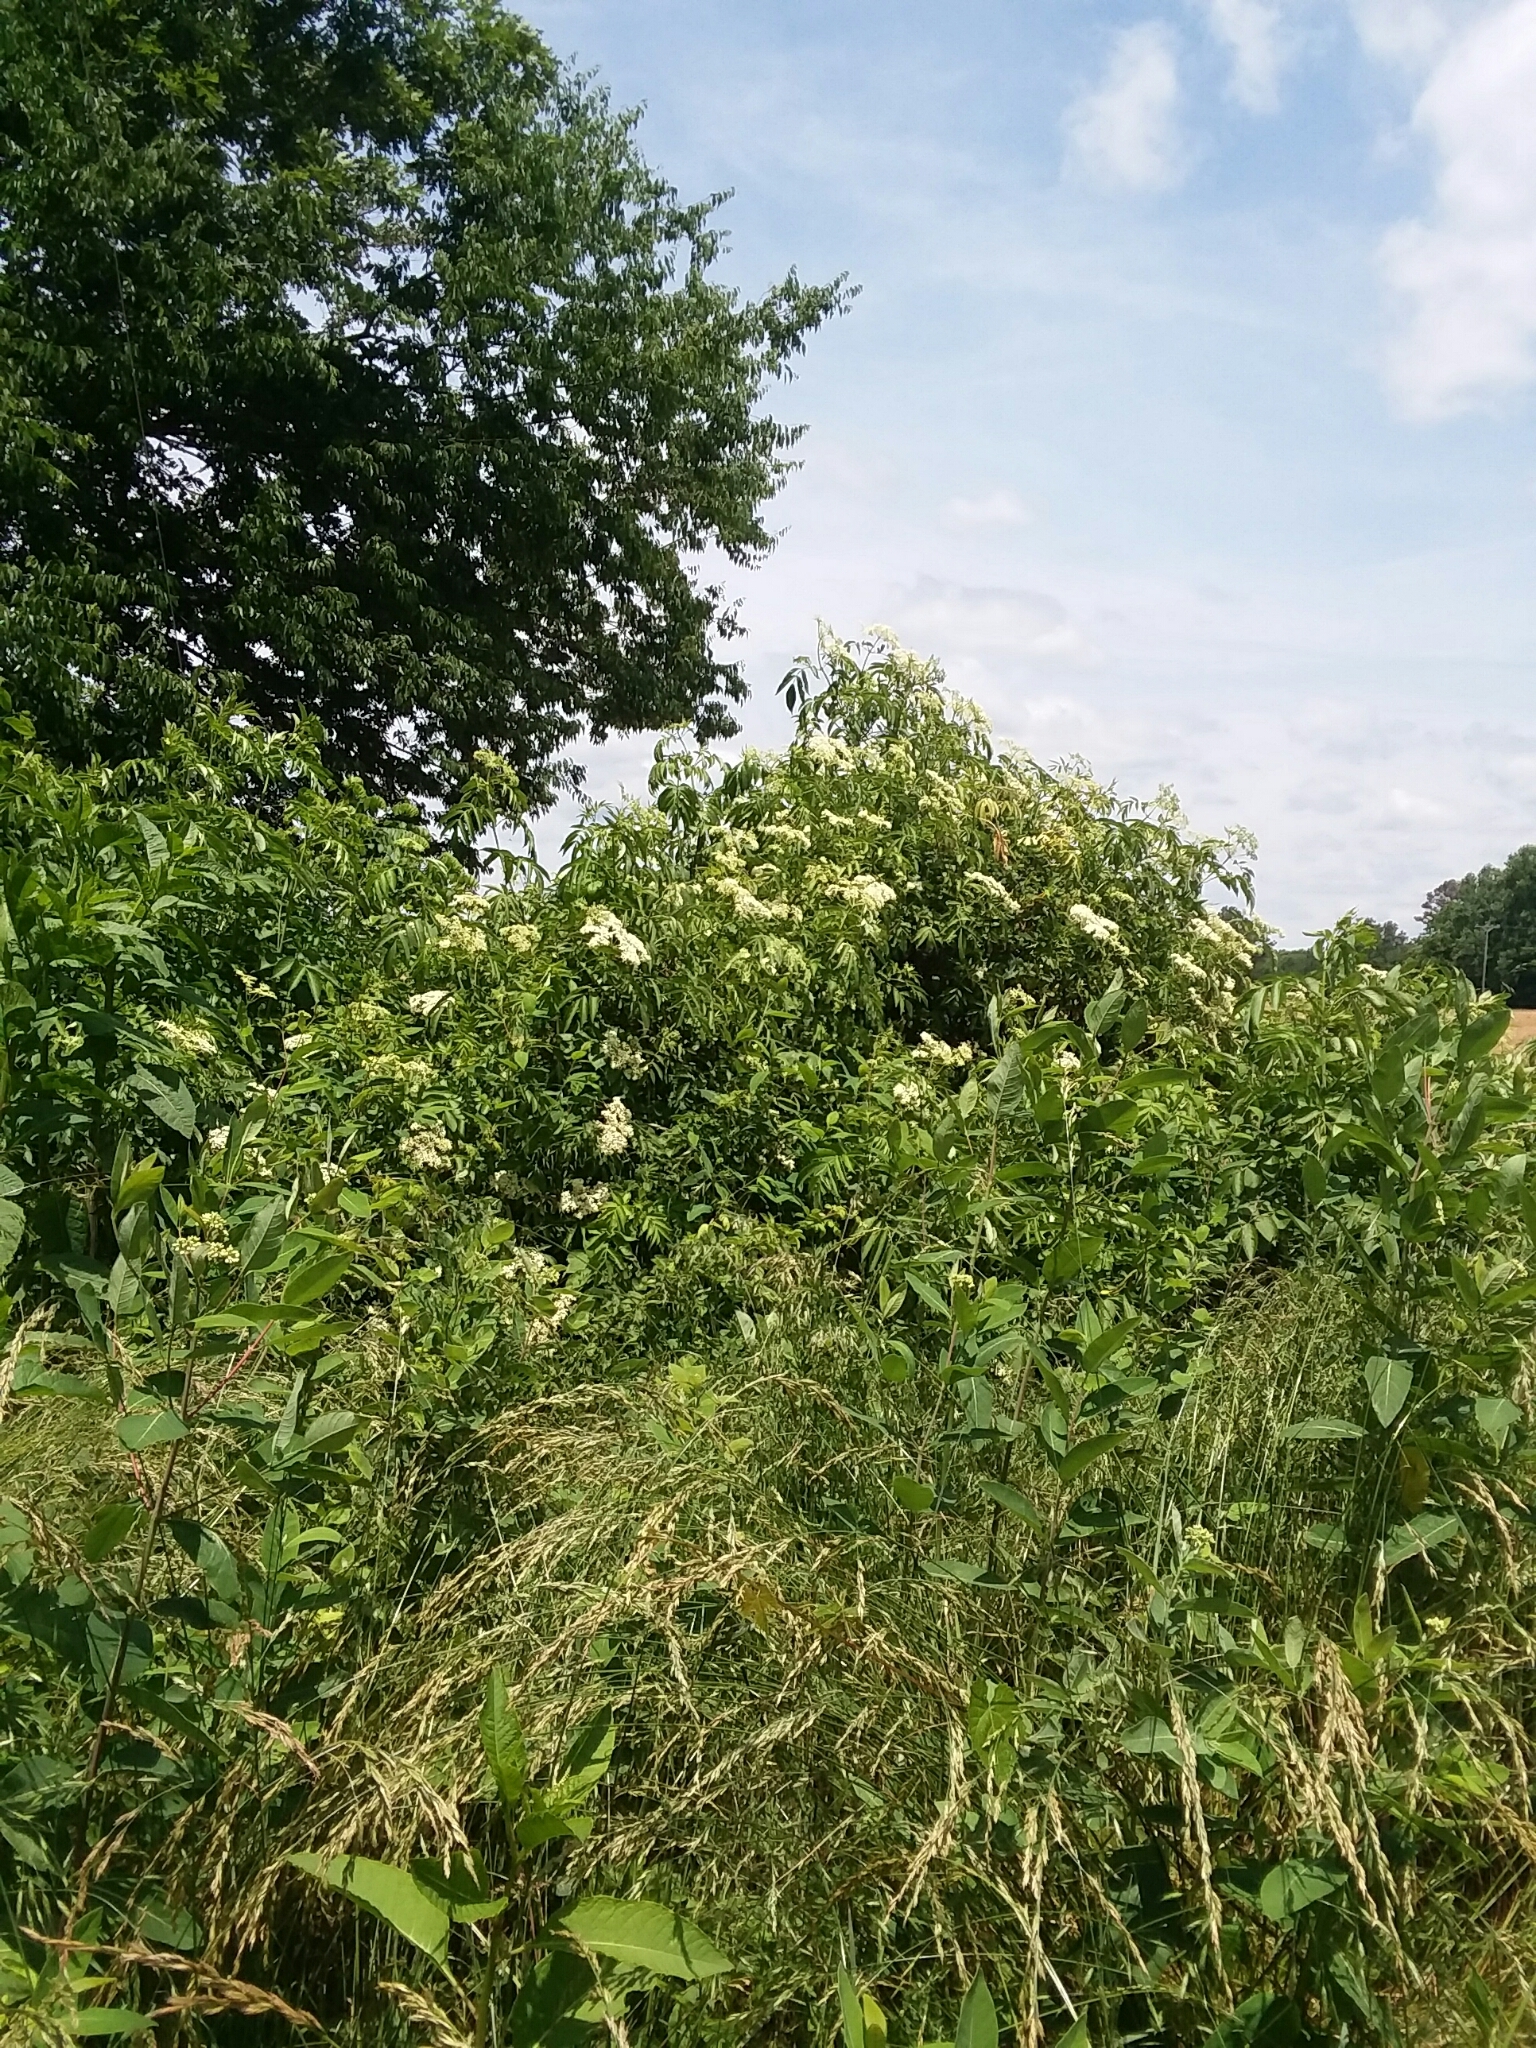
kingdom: Plantae
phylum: Tracheophyta
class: Magnoliopsida
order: Dipsacales
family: Viburnaceae
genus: Sambucus
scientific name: Sambucus canadensis
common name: American elder
